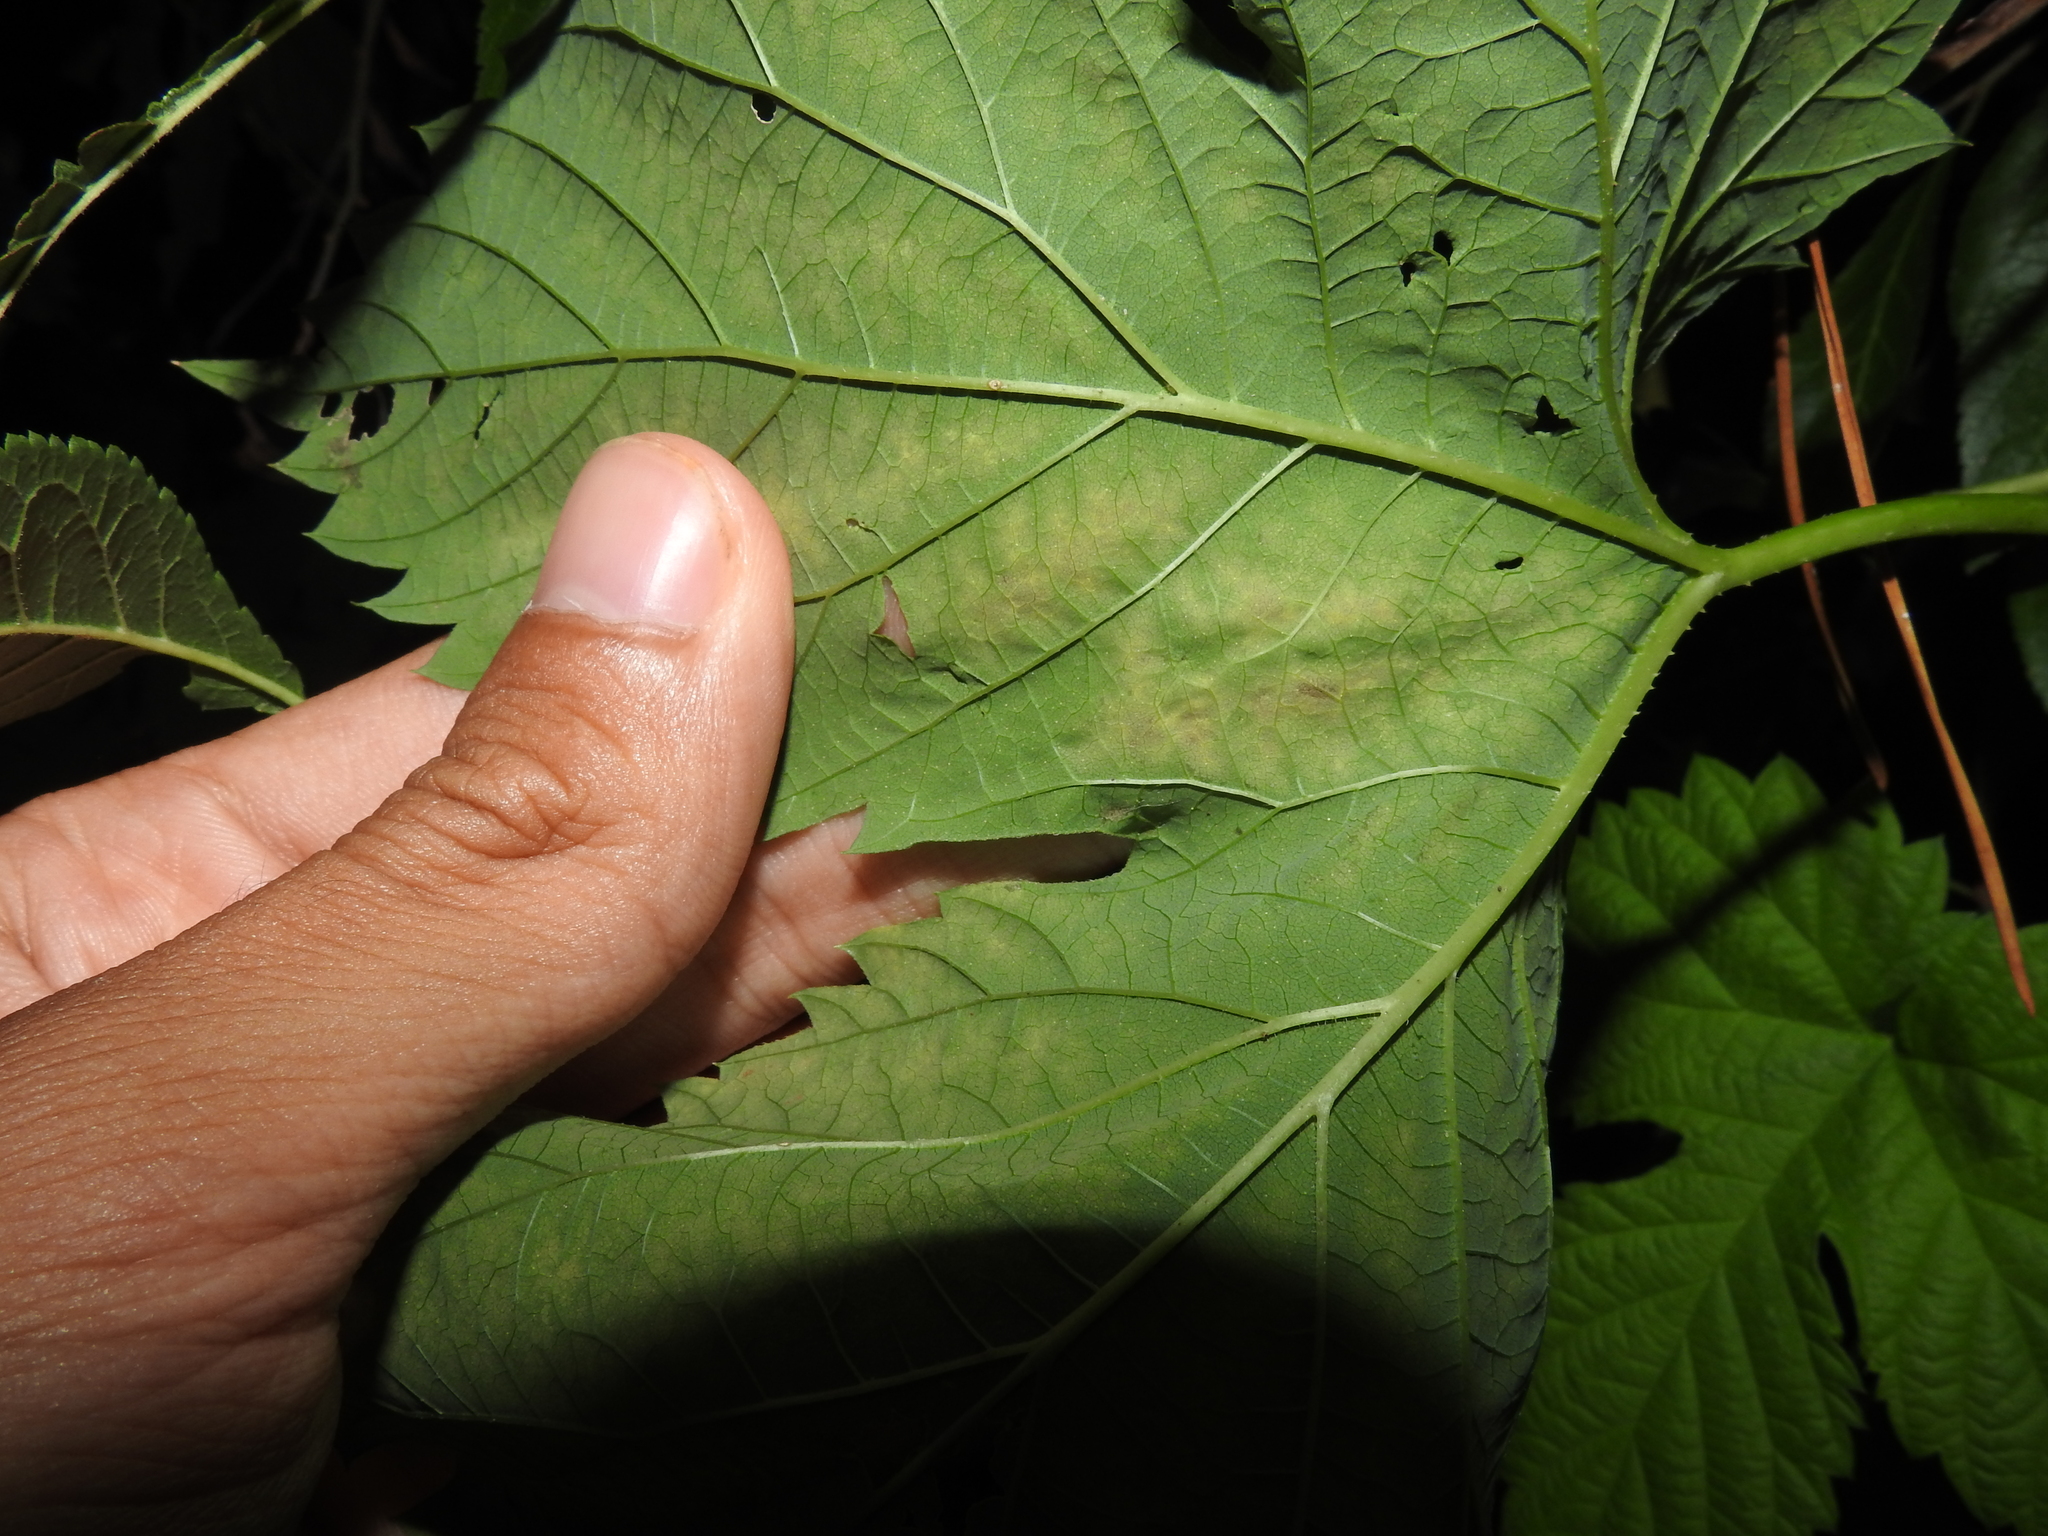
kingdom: Plantae
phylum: Tracheophyta
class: Magnoliopsida
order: Rosales
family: Cannabaceae
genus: Humulus
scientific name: Humulus lupulus
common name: Hop
